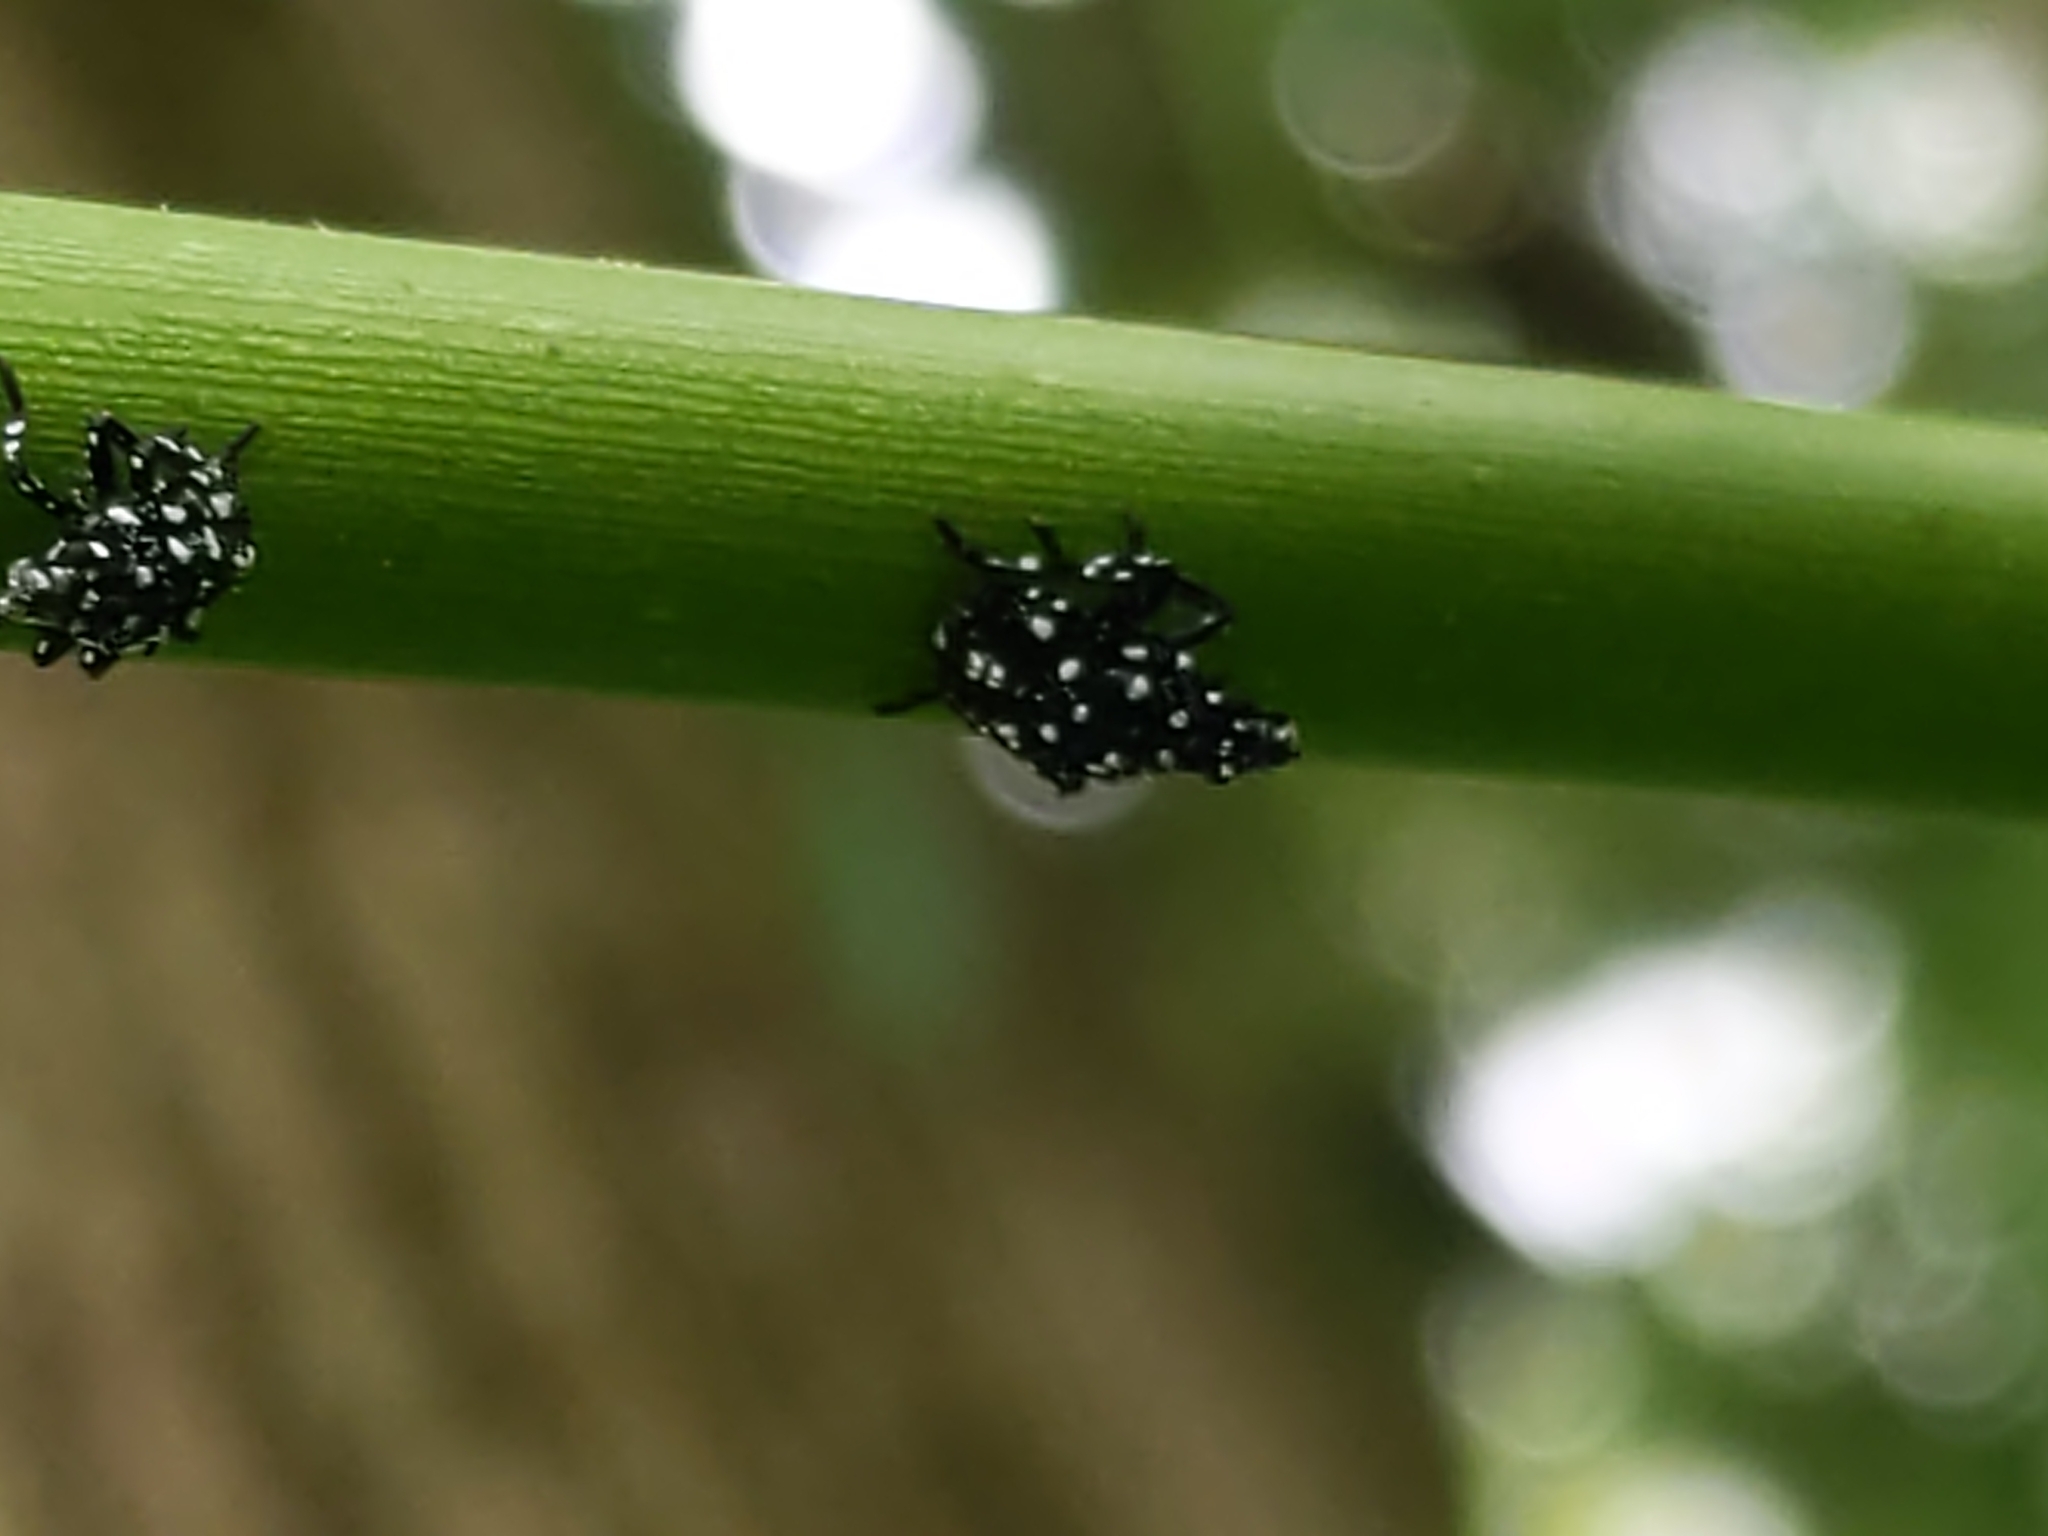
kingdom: Animalia
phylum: Arthropoda
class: Insecta
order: Hemiptera
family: Fulgoridae
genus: Lycorma
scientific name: Lycorma delicatula
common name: Spotted lanternfly
